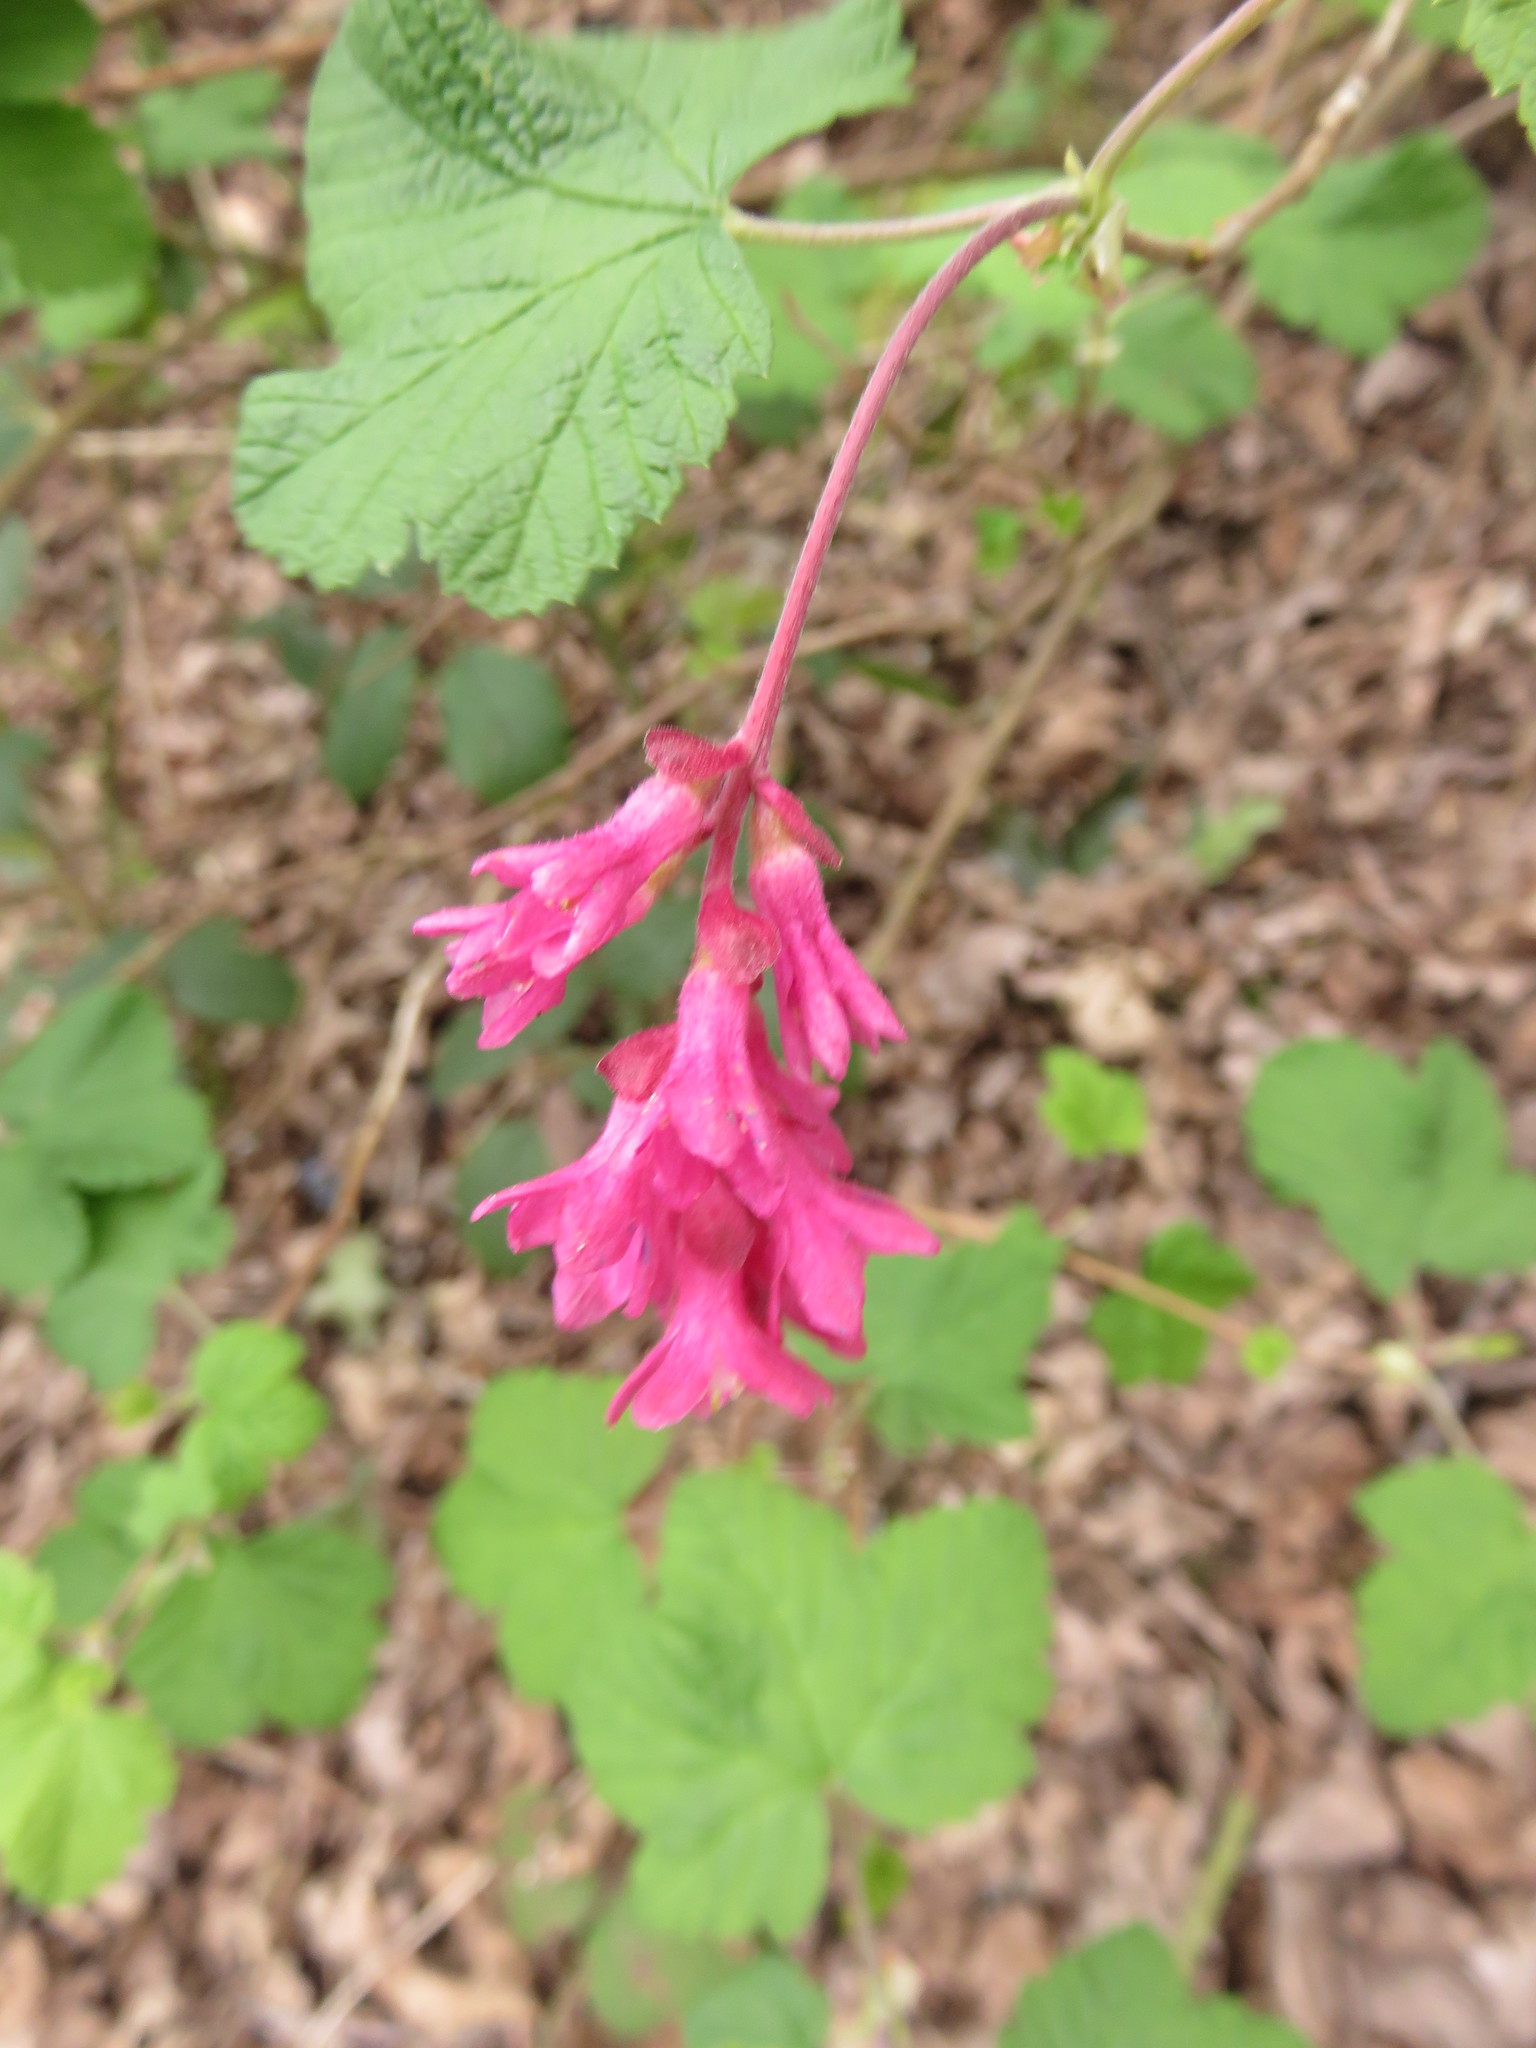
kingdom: Plantae
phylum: Tracheophyta
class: Magnoliopsida
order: Saxifragales
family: Grossulariaceae
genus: Ribes
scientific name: Ribes sanguineum
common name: Flowering currant
